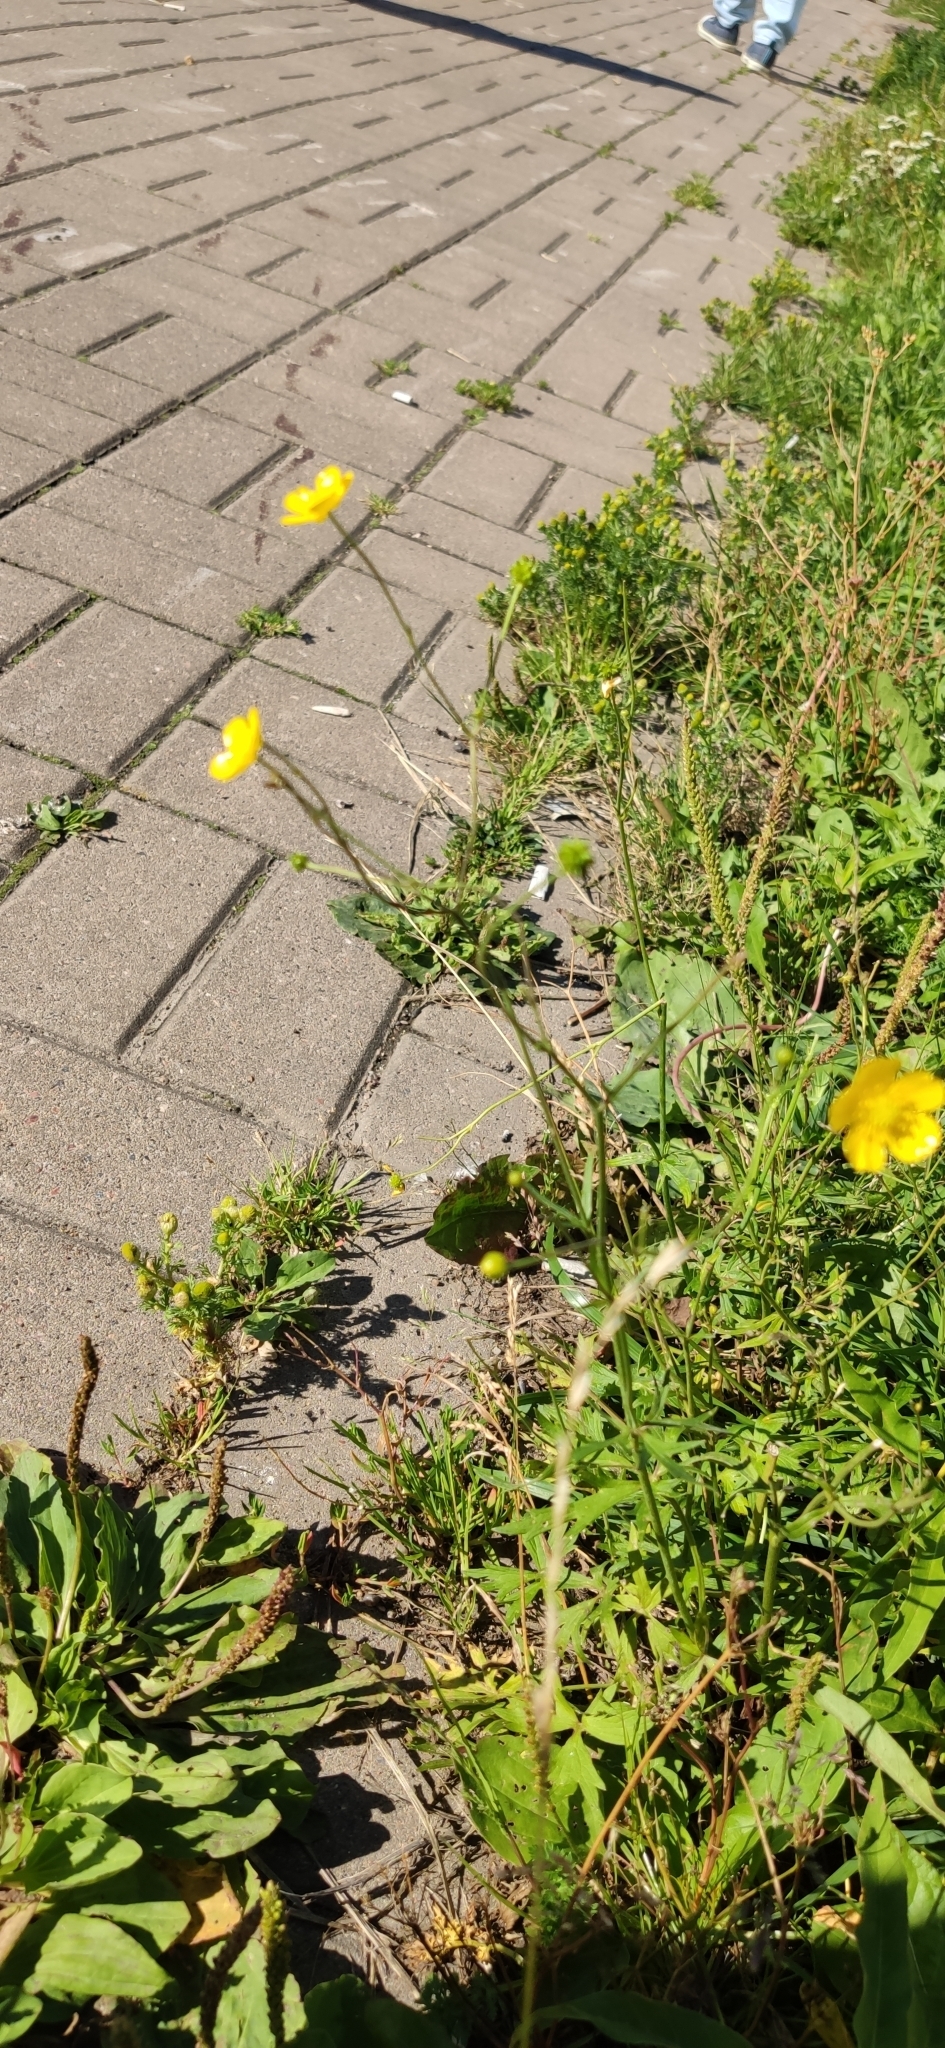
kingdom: Plantae
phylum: Tracheophyta
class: Magnoliopsida
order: Ranunculales
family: Ranunculaceae
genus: Ranunculus
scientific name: Ranunculus acris
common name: Meadow buttercup
